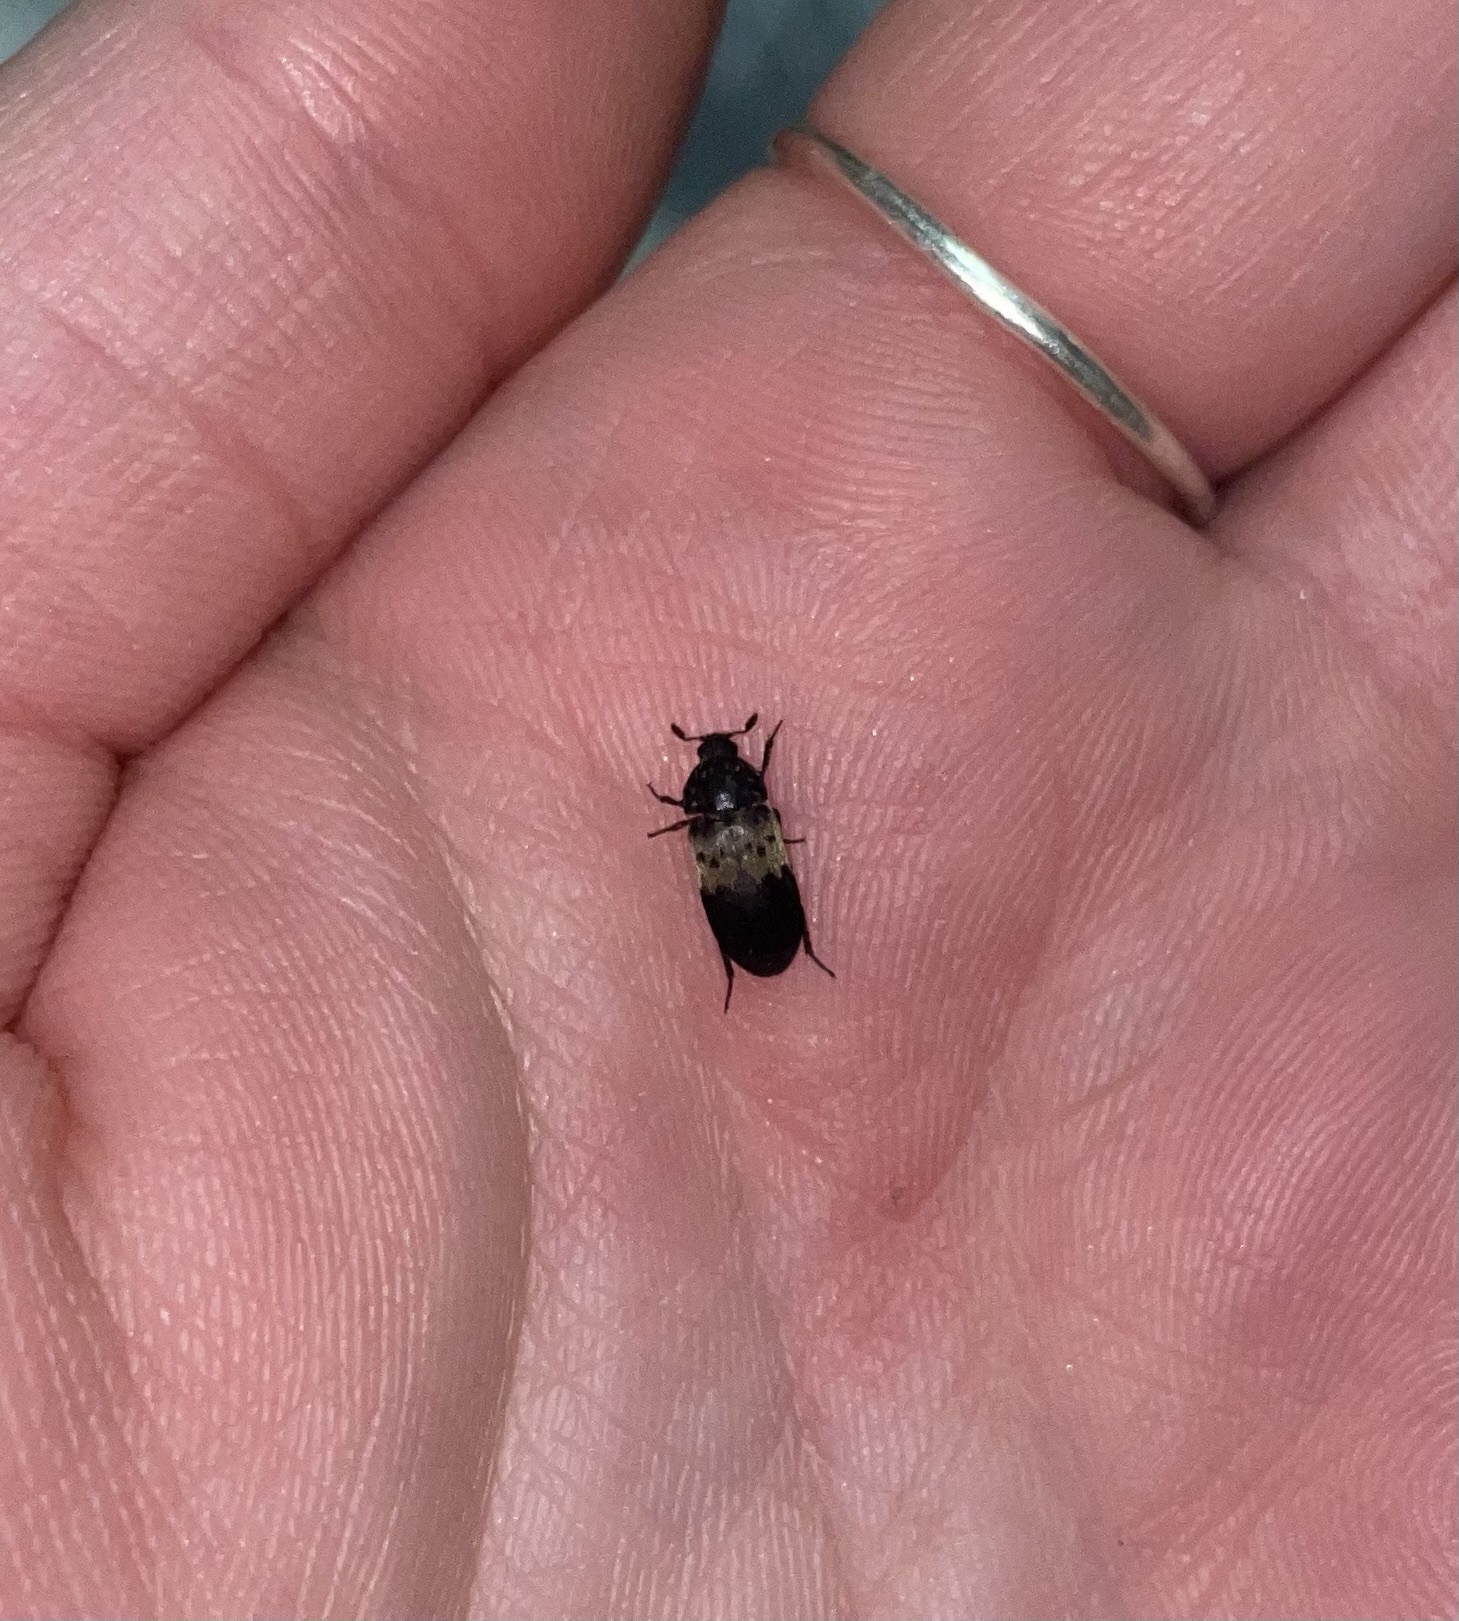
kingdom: Animalia
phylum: Arthropoda
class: Insecta
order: Coleoptera
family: Dermestidae
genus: Dermestes
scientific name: Dermestes lardarius
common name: Larder beetle
